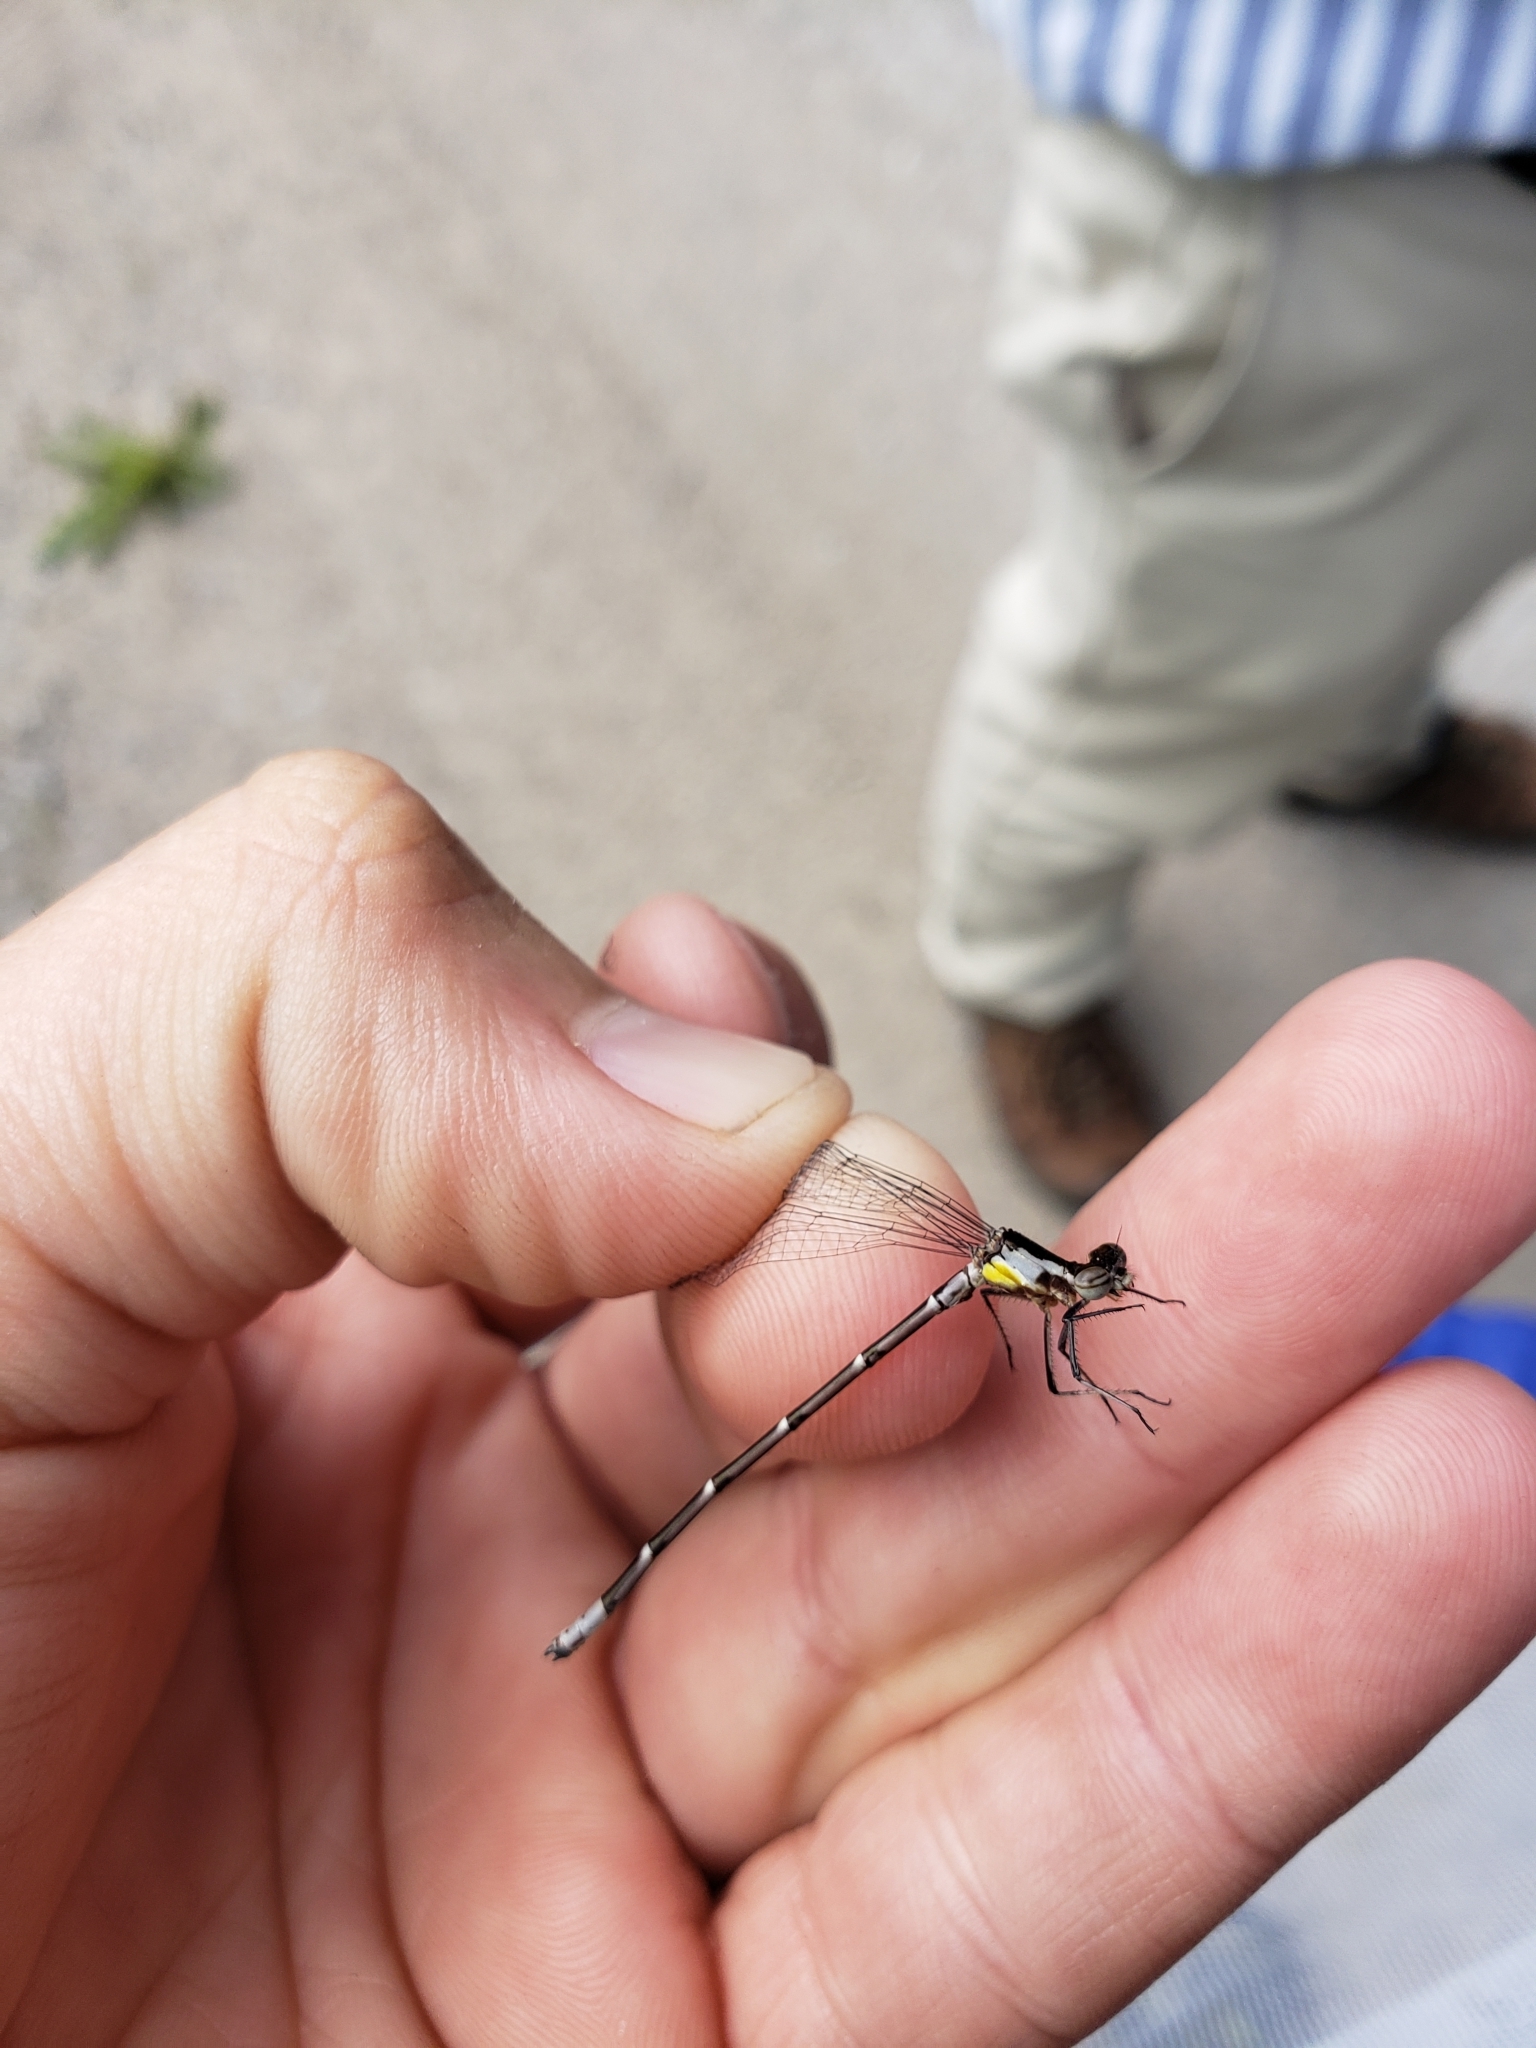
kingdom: Animalia
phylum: Arthropoda
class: Insecta
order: Odonata
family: Coenagrionidae
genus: Chromagrion
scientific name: Chromagrion conditum
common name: Aurora damsel
